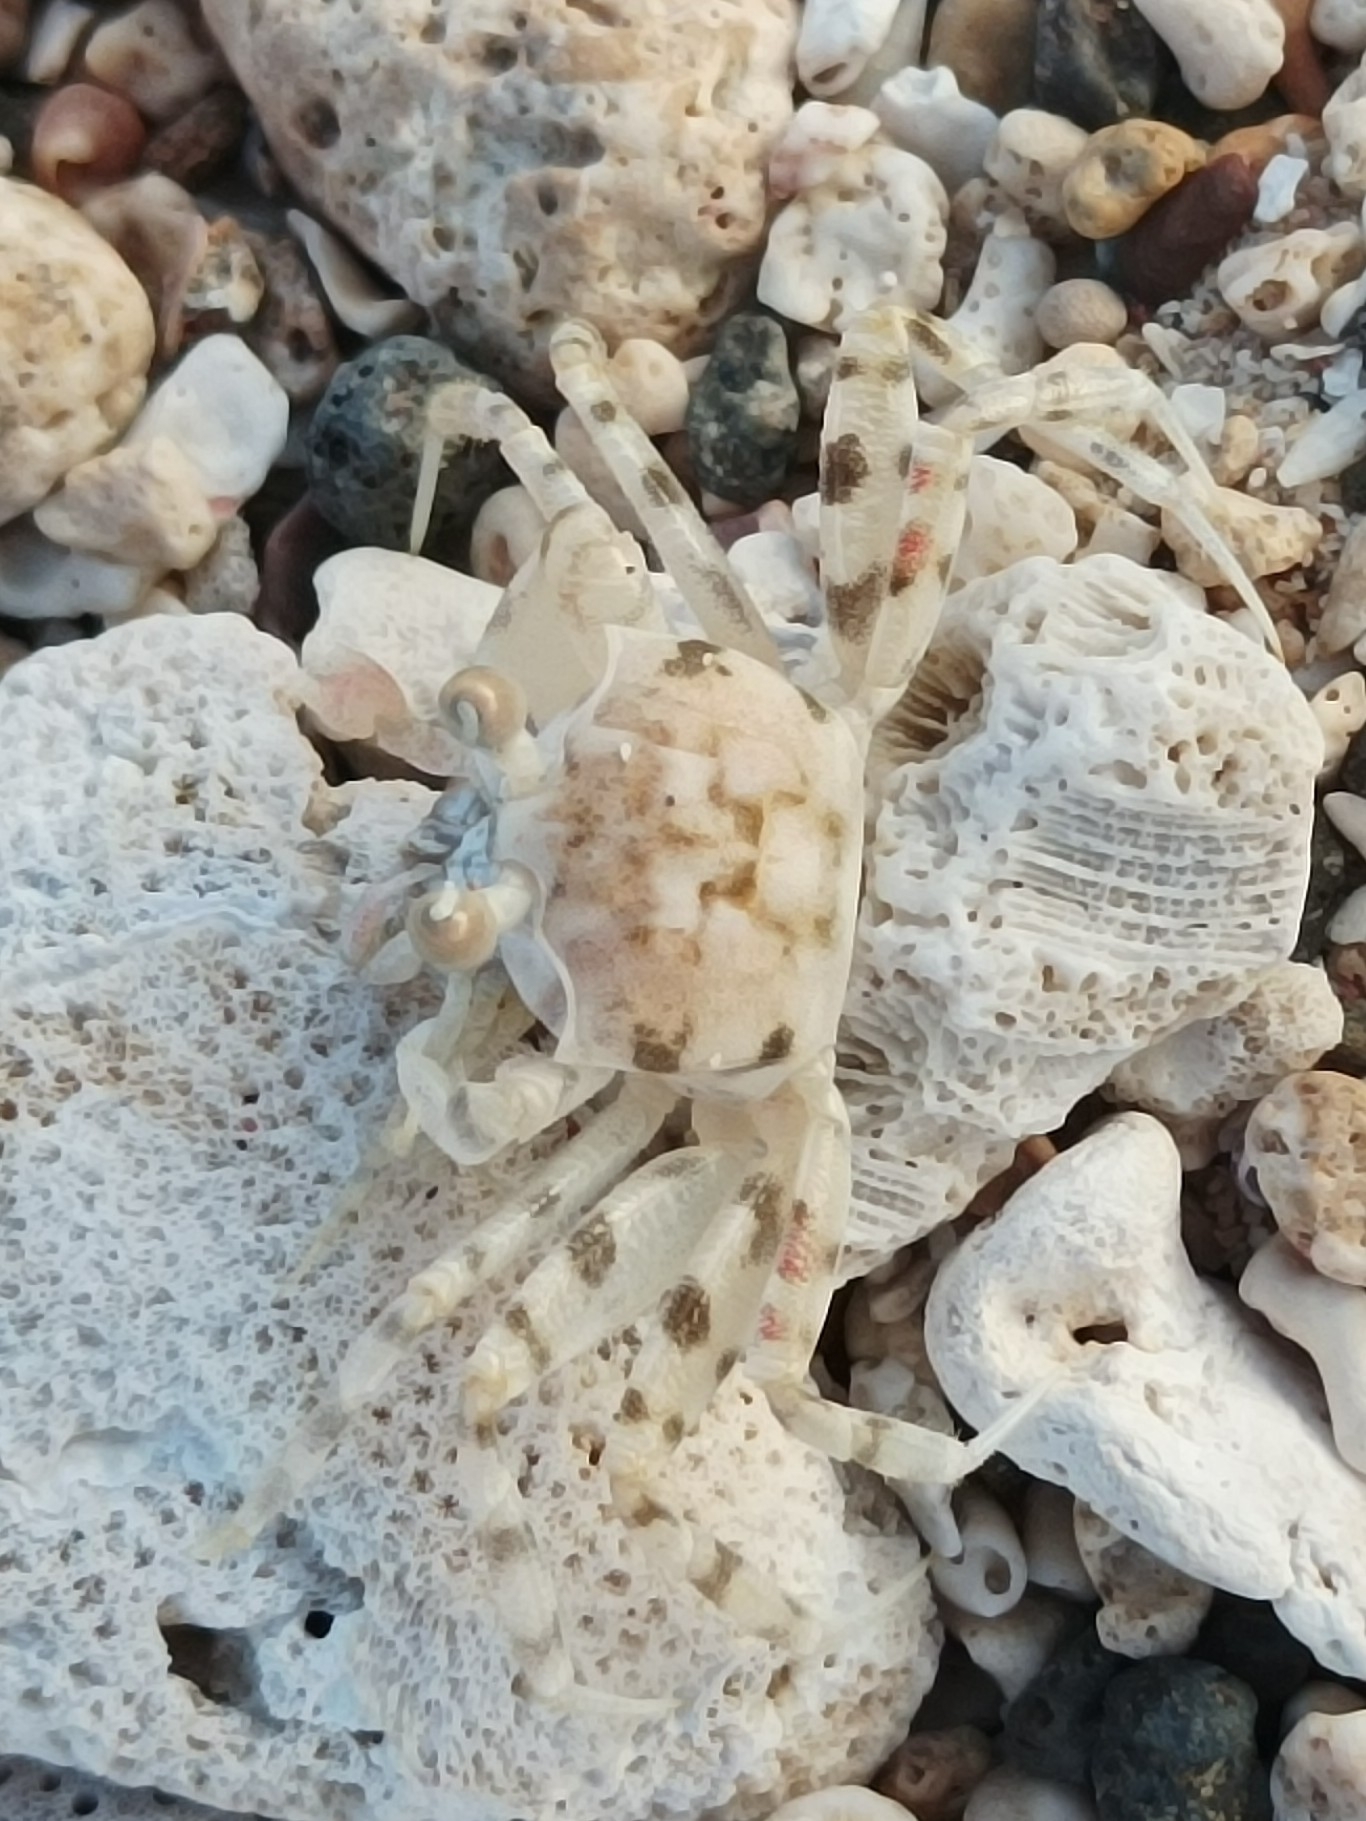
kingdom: Animalia
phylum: Arthropoda
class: Malacostraca
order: Decapoda
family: Ocypodidae
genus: Ocypode
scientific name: Ocypode pallidula
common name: Pallid ghost crab
